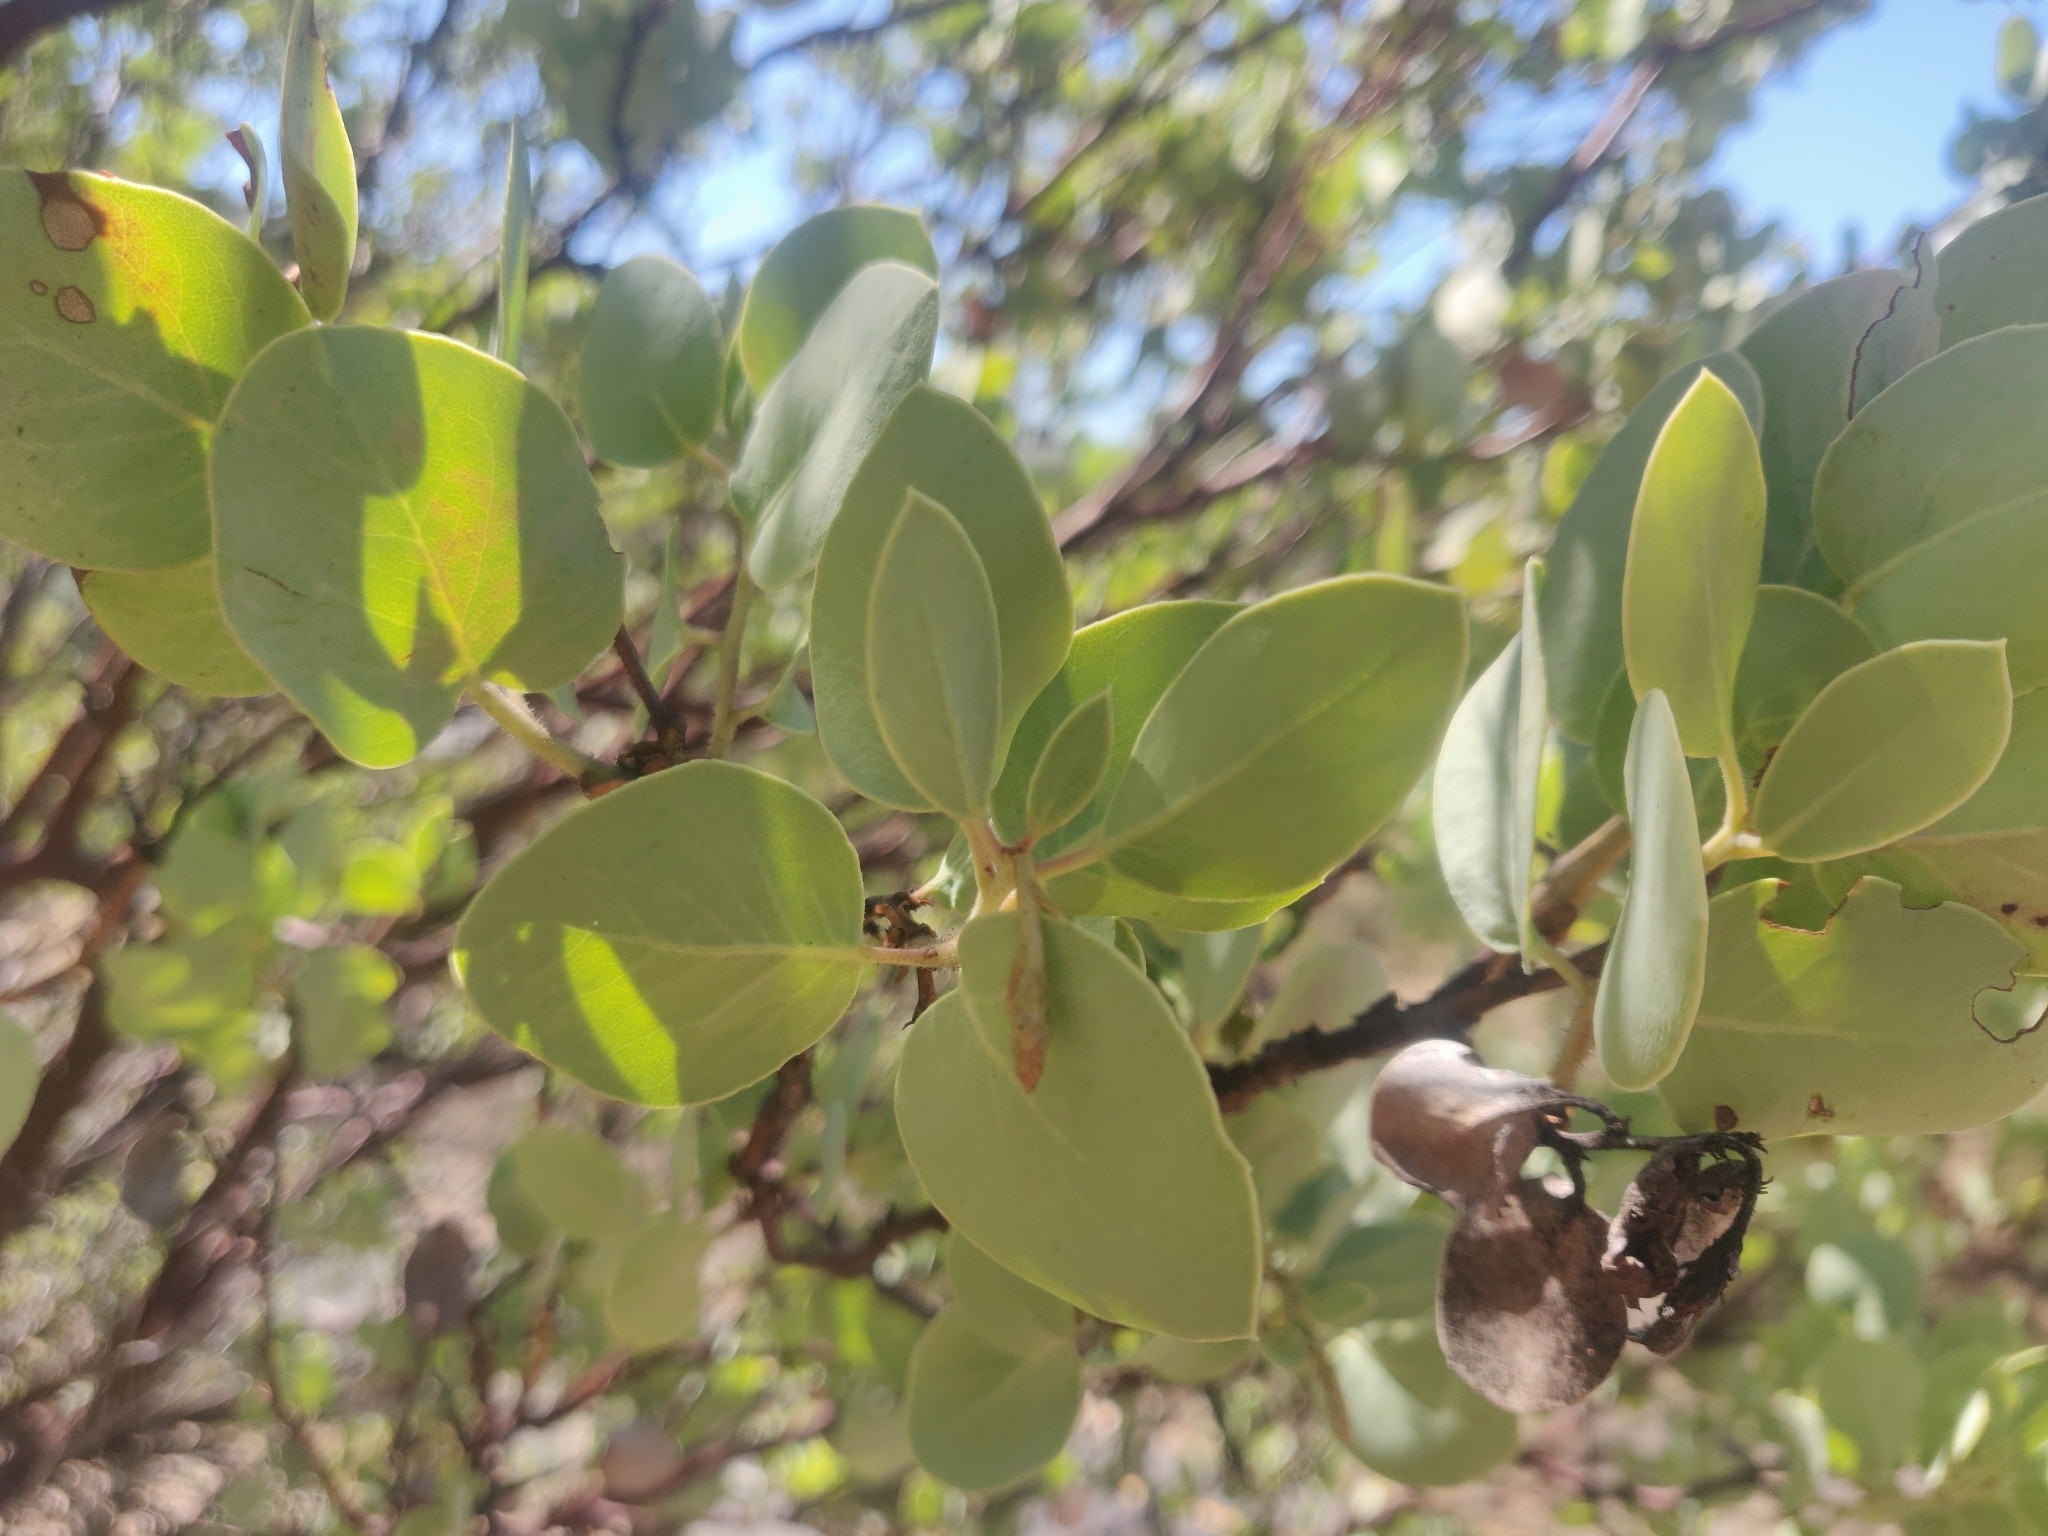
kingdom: Plantae
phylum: Tracheophyta
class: Magnoliopsida
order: Ericales
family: Ericaceae
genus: Arctostaphylos
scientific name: Arctostaphylos viscida
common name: White-leaf manzanita
